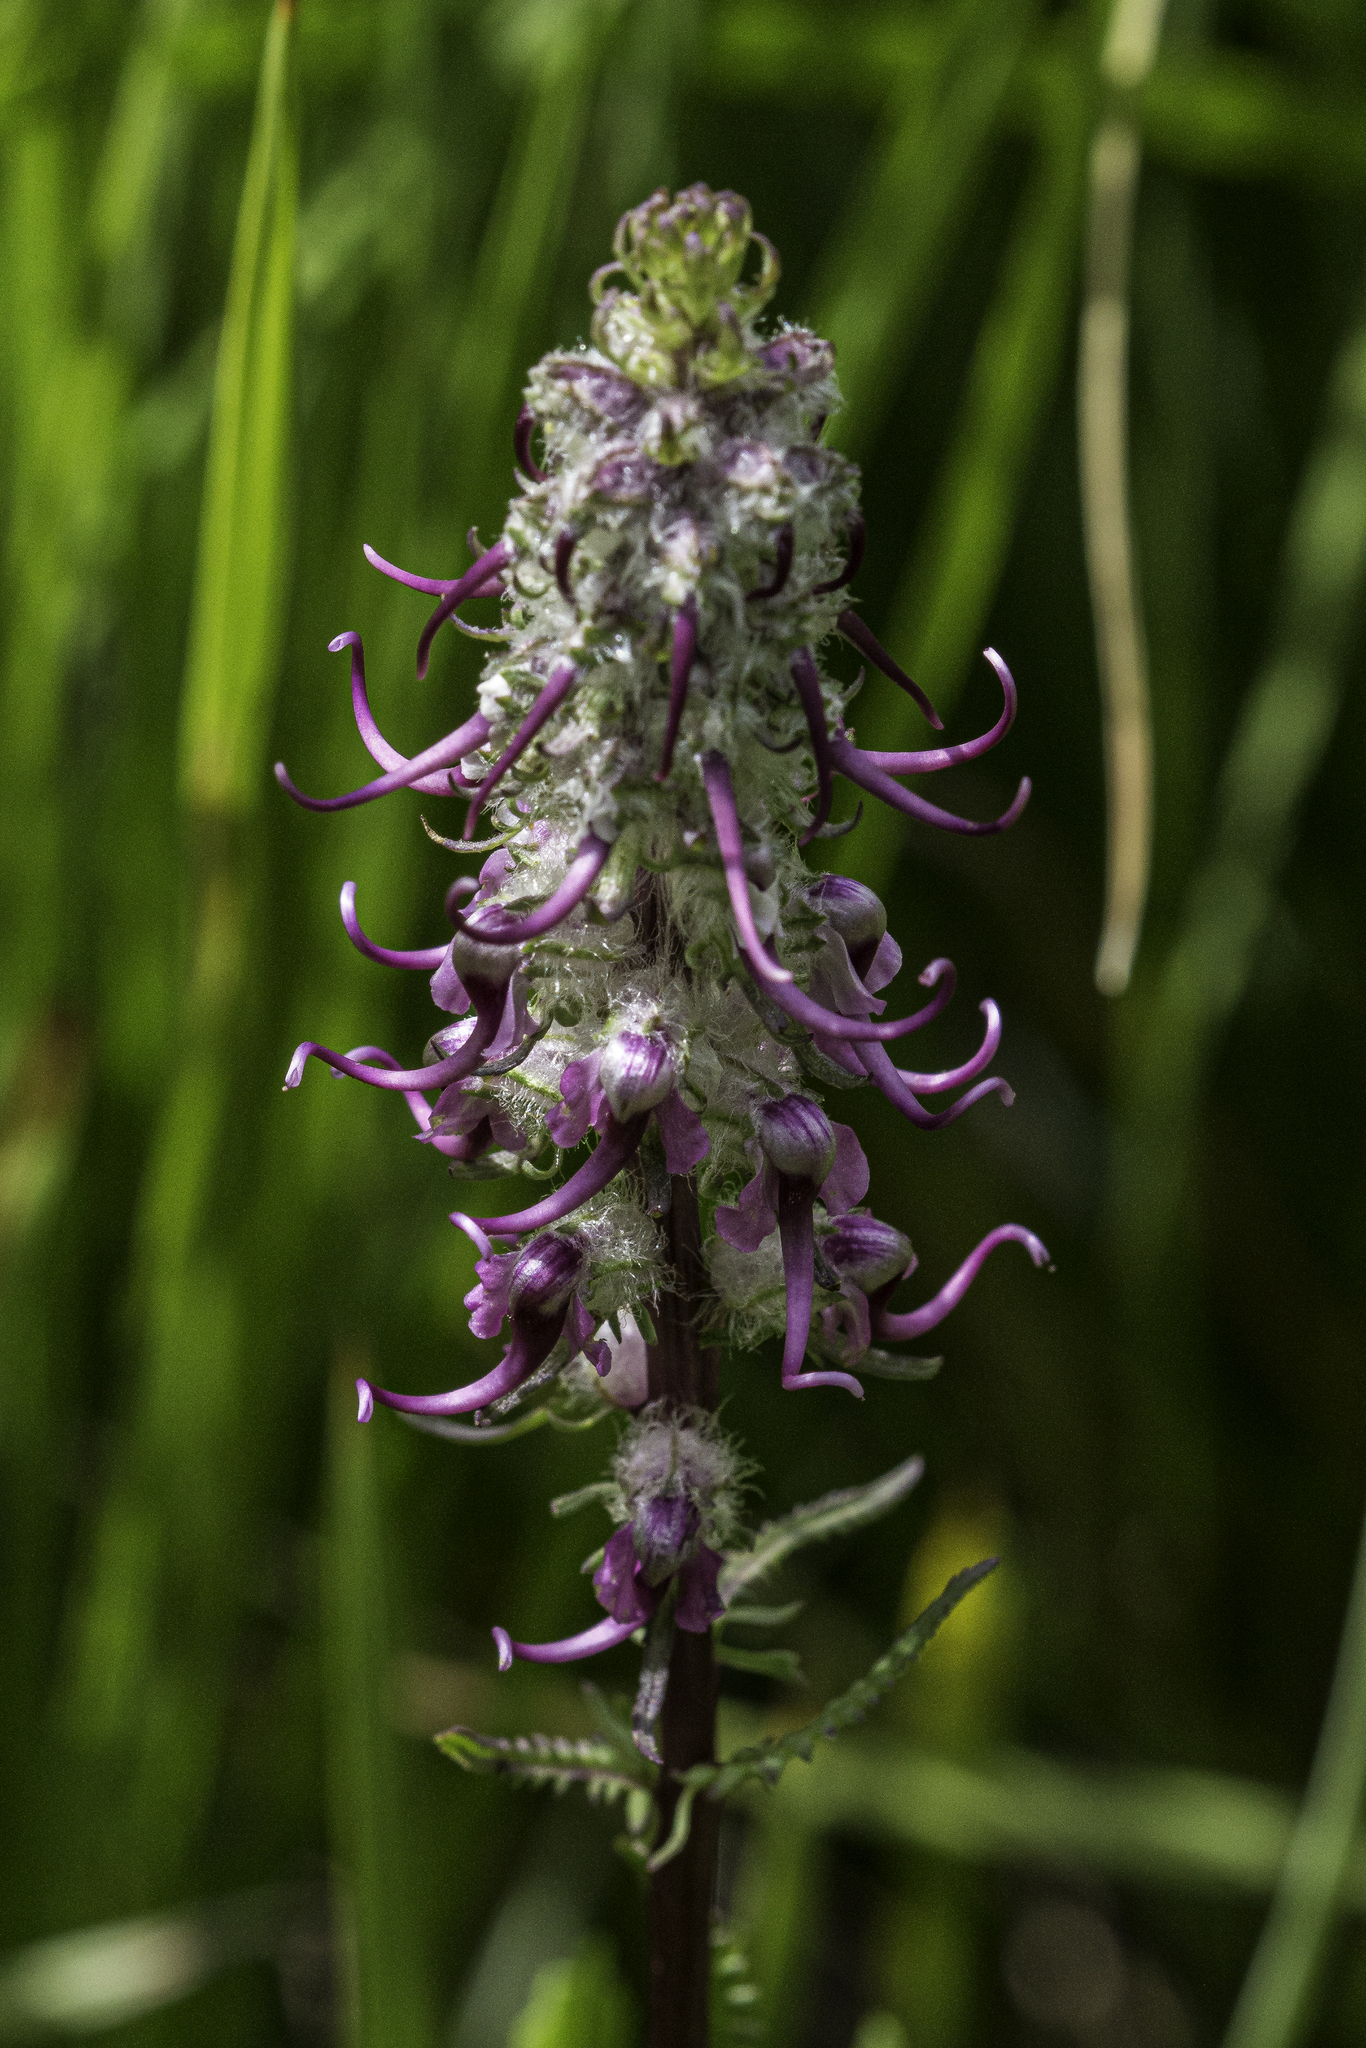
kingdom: Plantae
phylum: Tracheophyta
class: Magnoliopsida
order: Lamiales
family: Orobanchaceae
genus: Pedicularis
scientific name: Pedicularis groenlandica
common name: Elephant's-head
